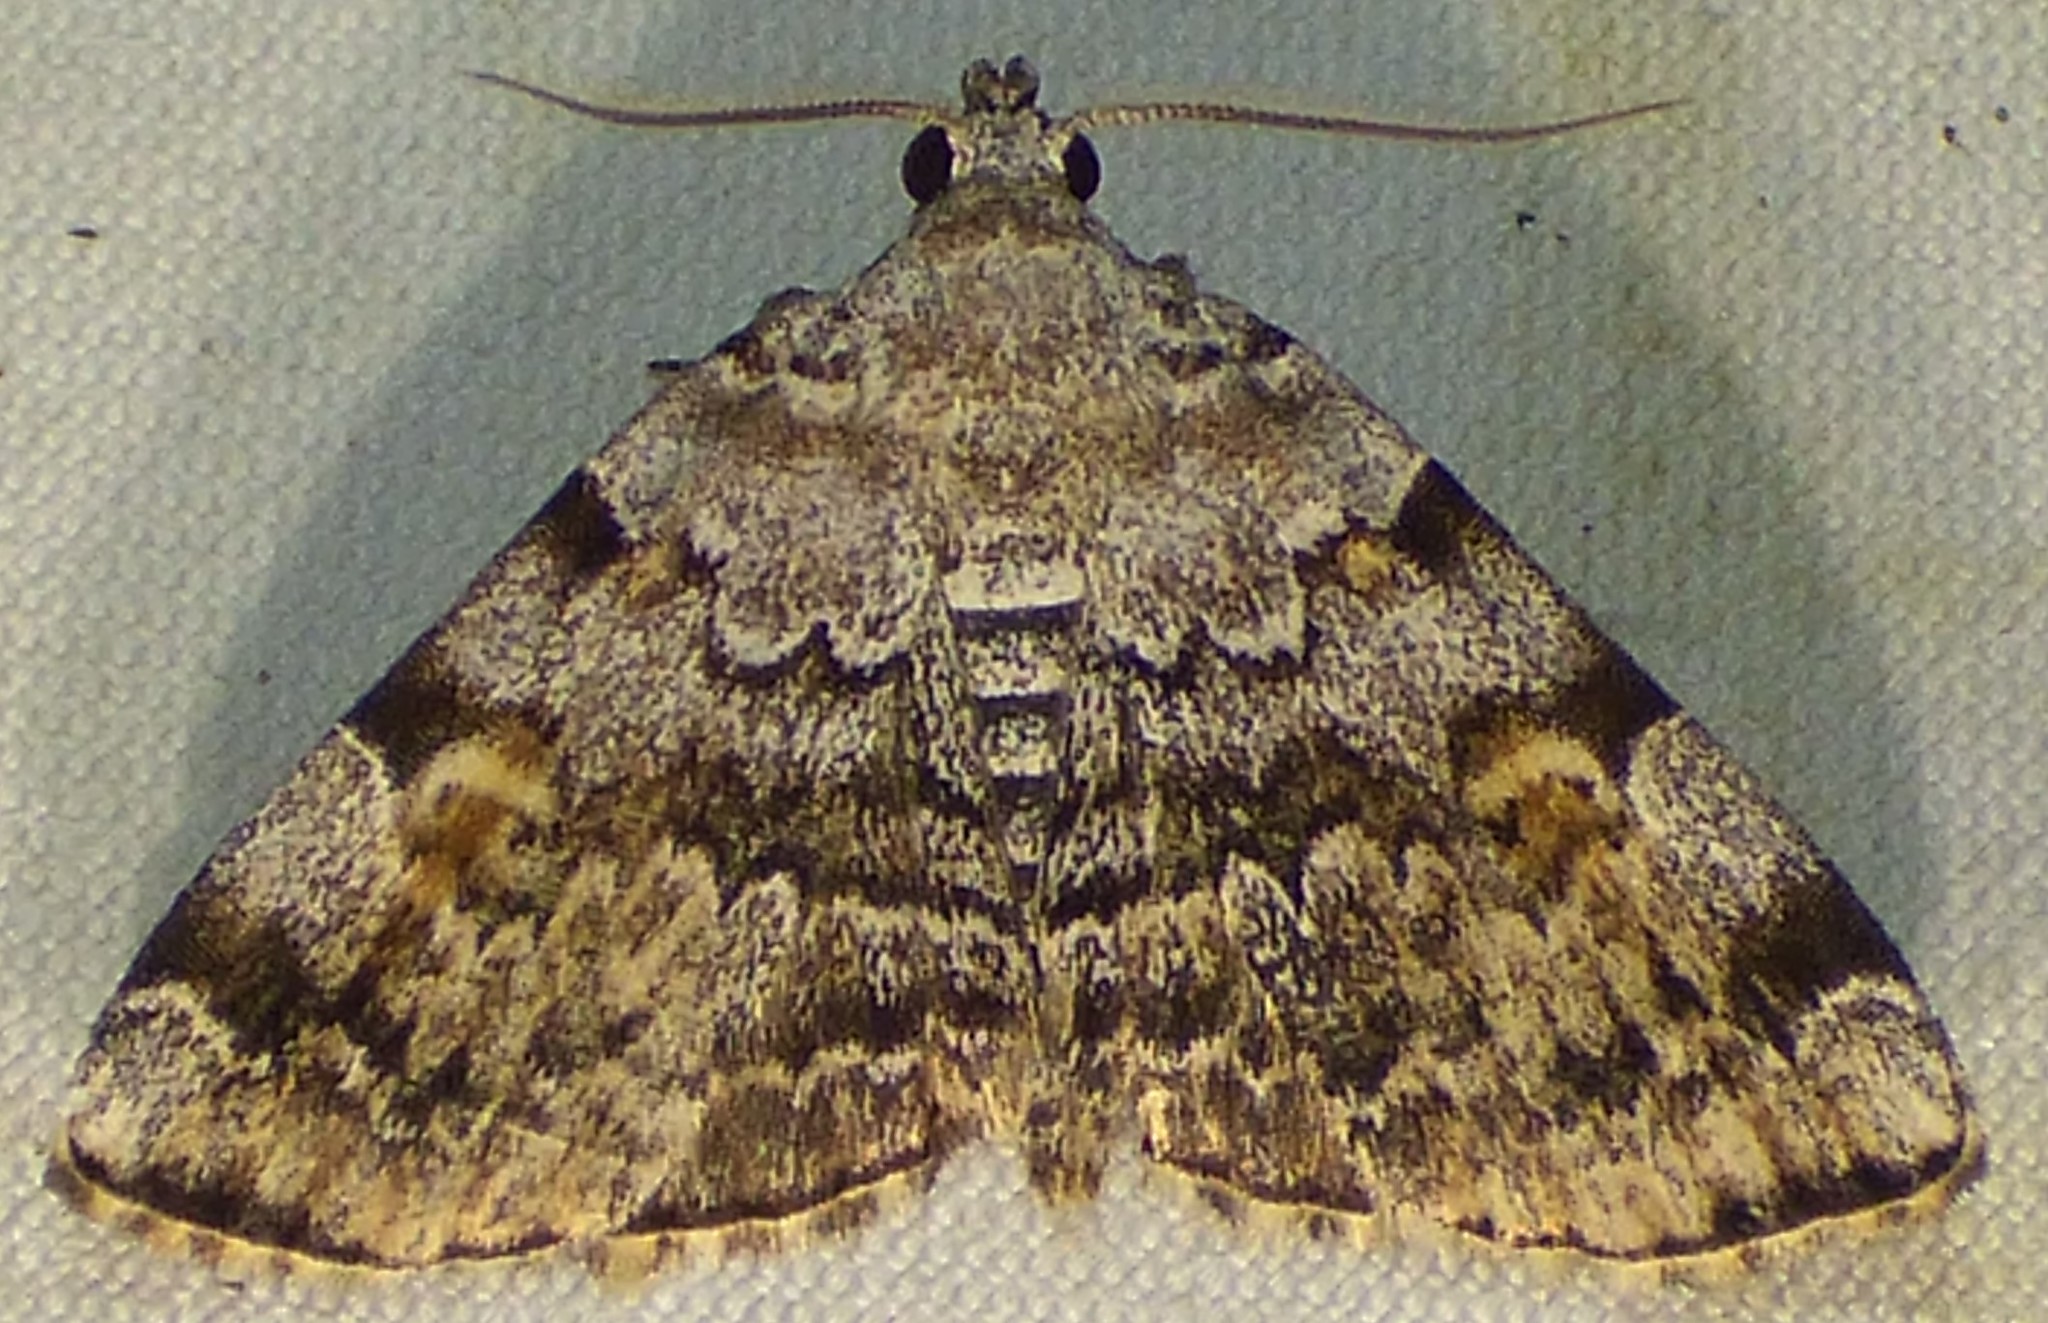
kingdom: Animalia
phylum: Arthropoda
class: Insecta
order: Lepidoptera
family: Erebidae
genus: Idia
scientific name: Idia americalis
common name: American idia moth
